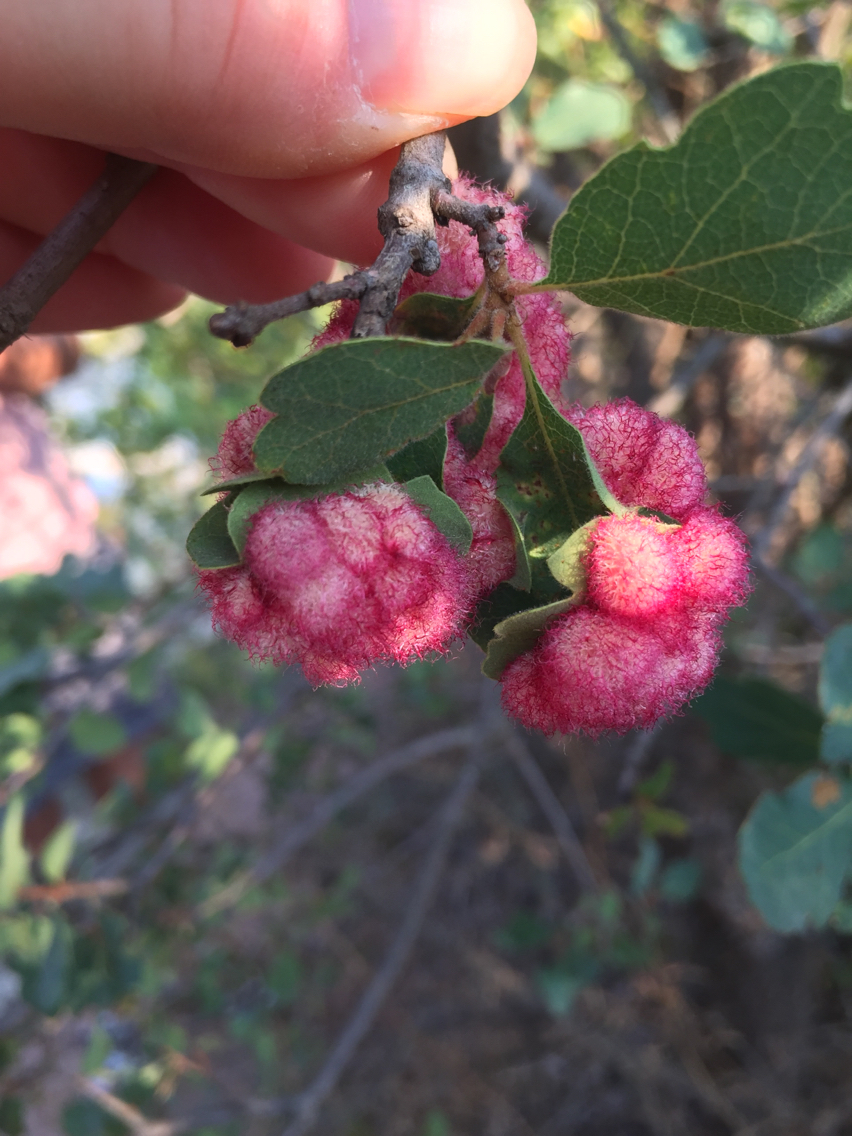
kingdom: Animalia
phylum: Arthropoda
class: Insecta
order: Hymenoptera
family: Cynipidae
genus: Andricus
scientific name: Andricus
